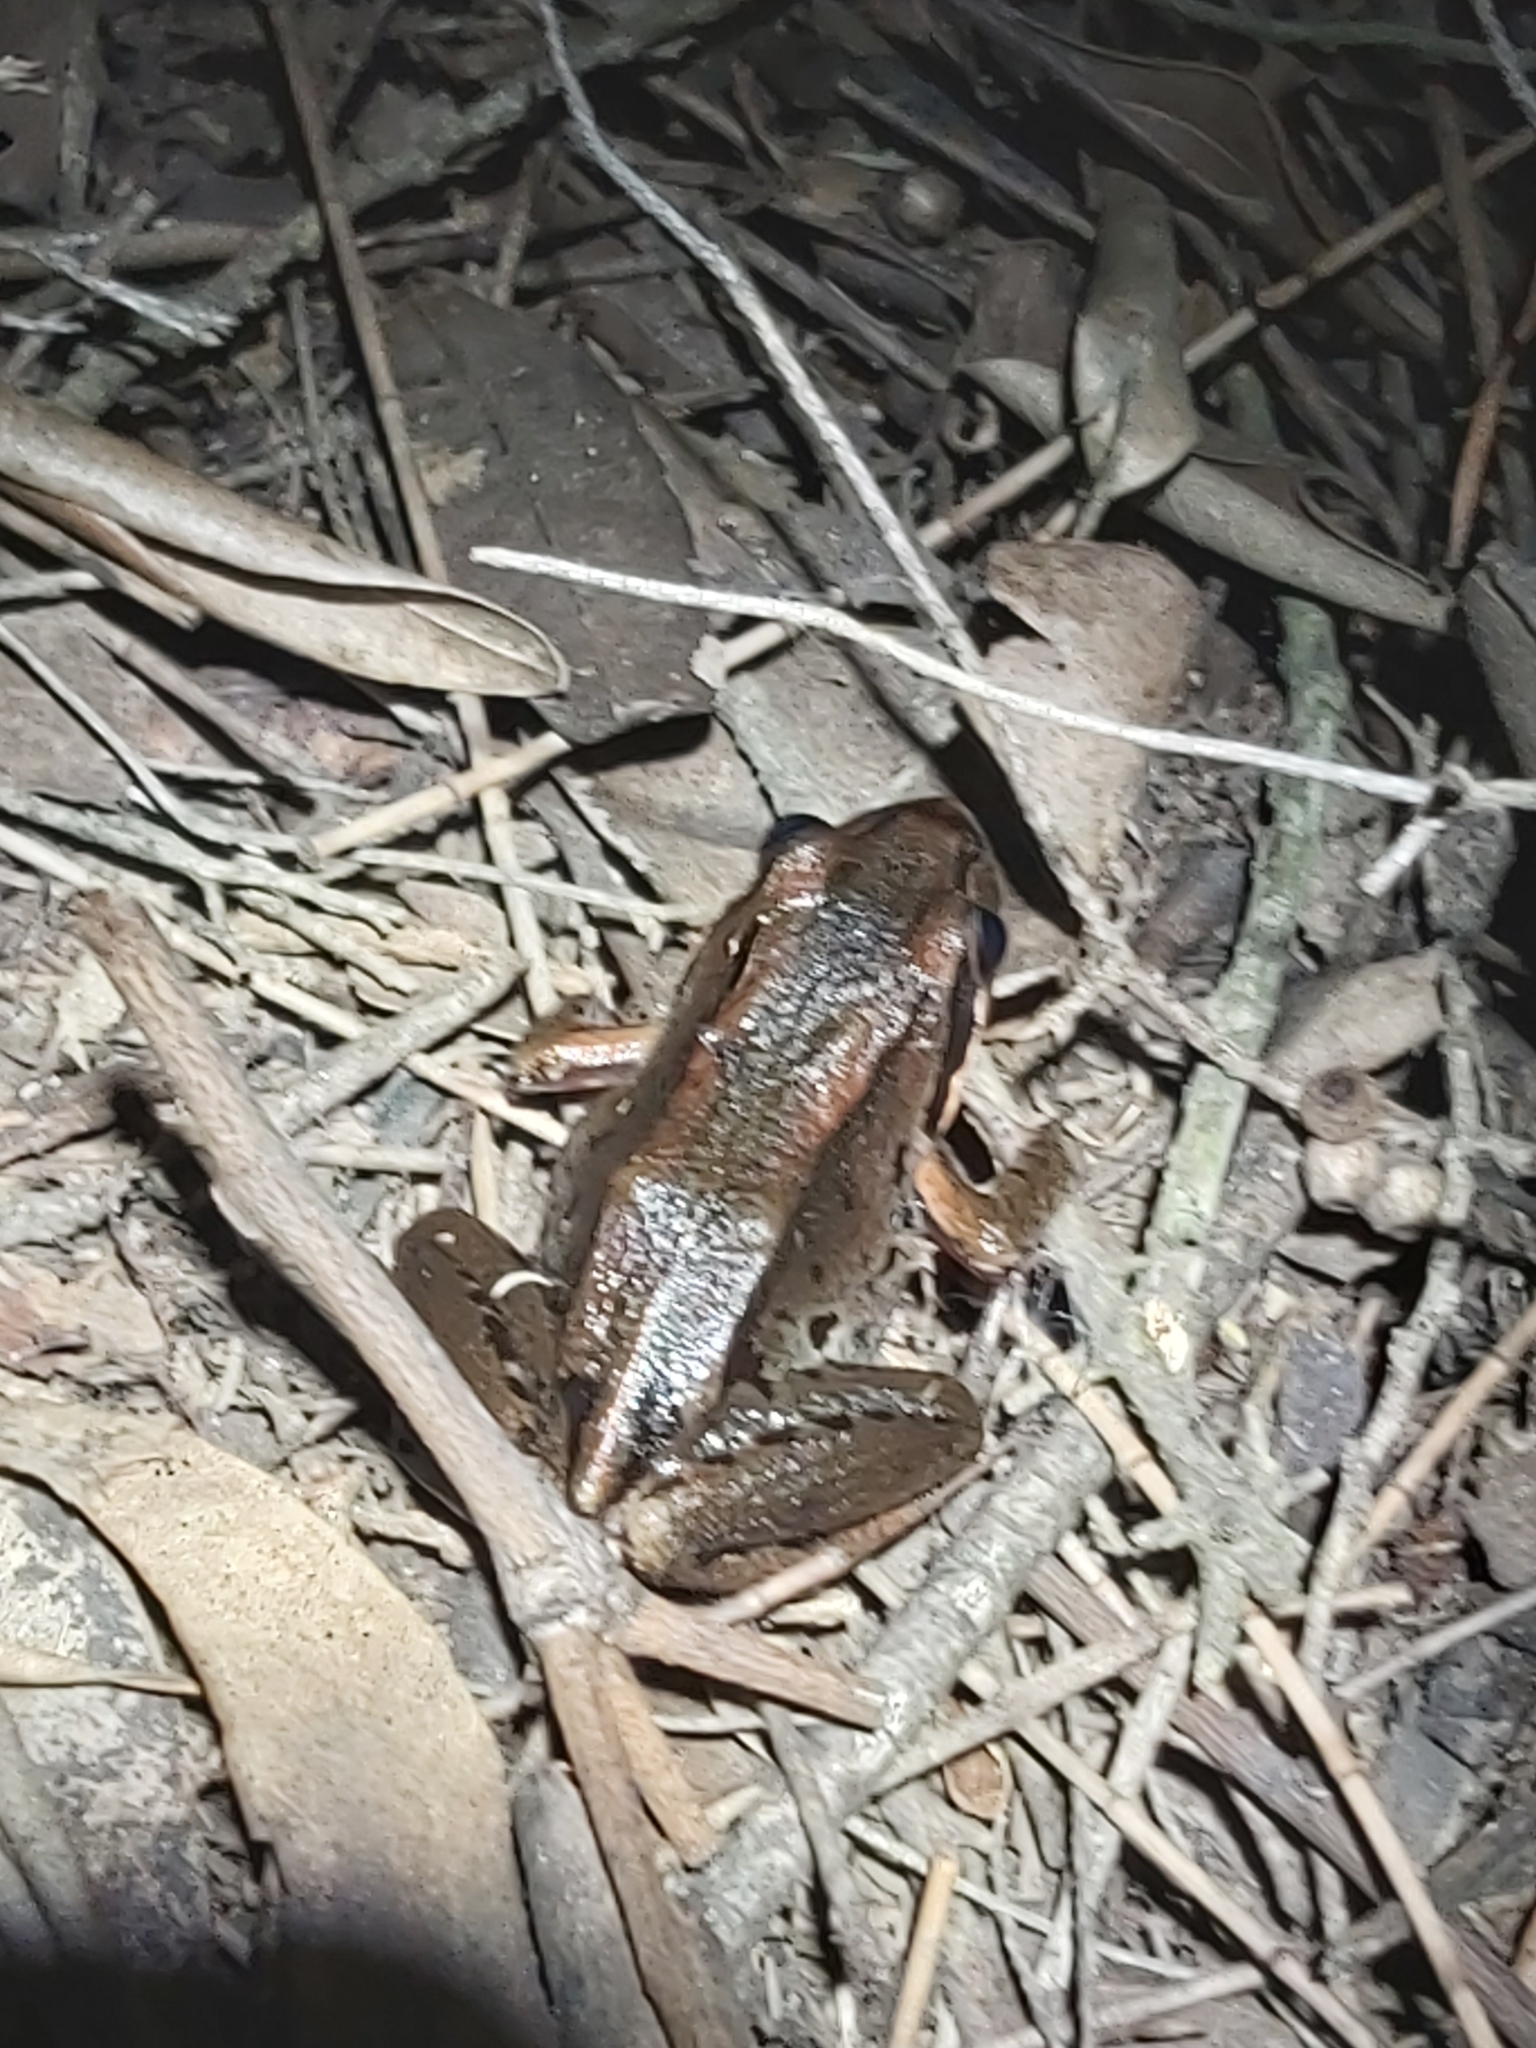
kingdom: Animalia
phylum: Chordata
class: Amphibia
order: Anura
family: Limnodynastidae
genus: Limnodynastes
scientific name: Limnodynastes peronii
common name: Brown frog
